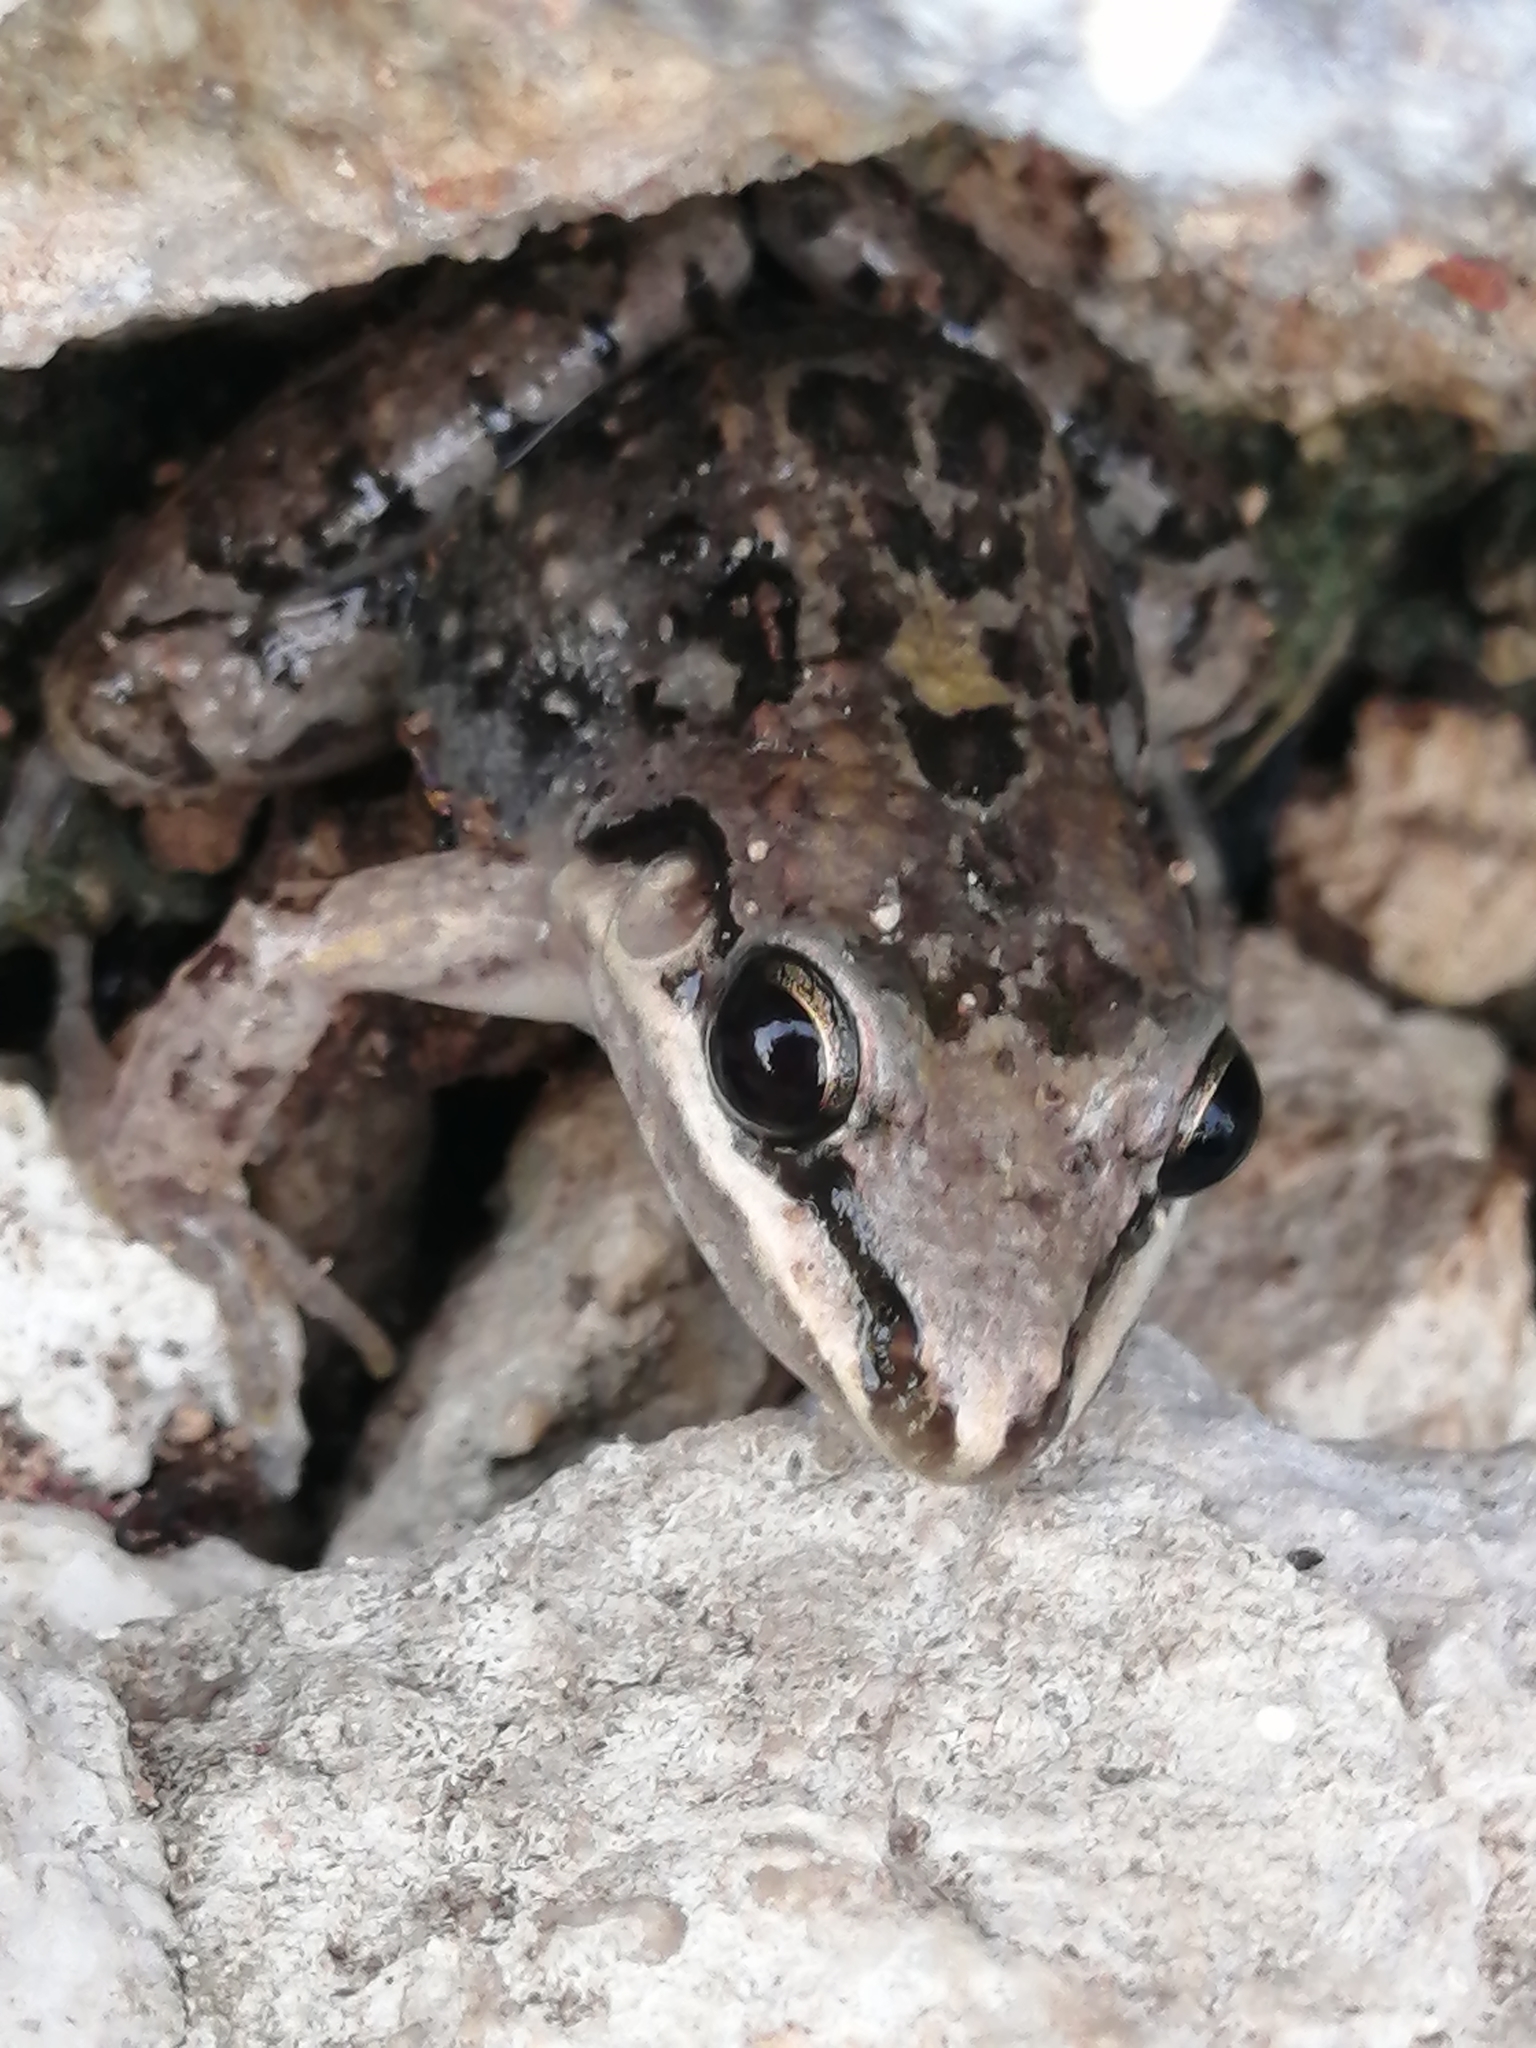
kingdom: Animalia
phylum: Chordata
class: Amphibia
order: Anura
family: Leptodactylidae
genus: Leptodactylus
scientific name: Leptodactylus fragilis
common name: Mexican white-lipped frog
